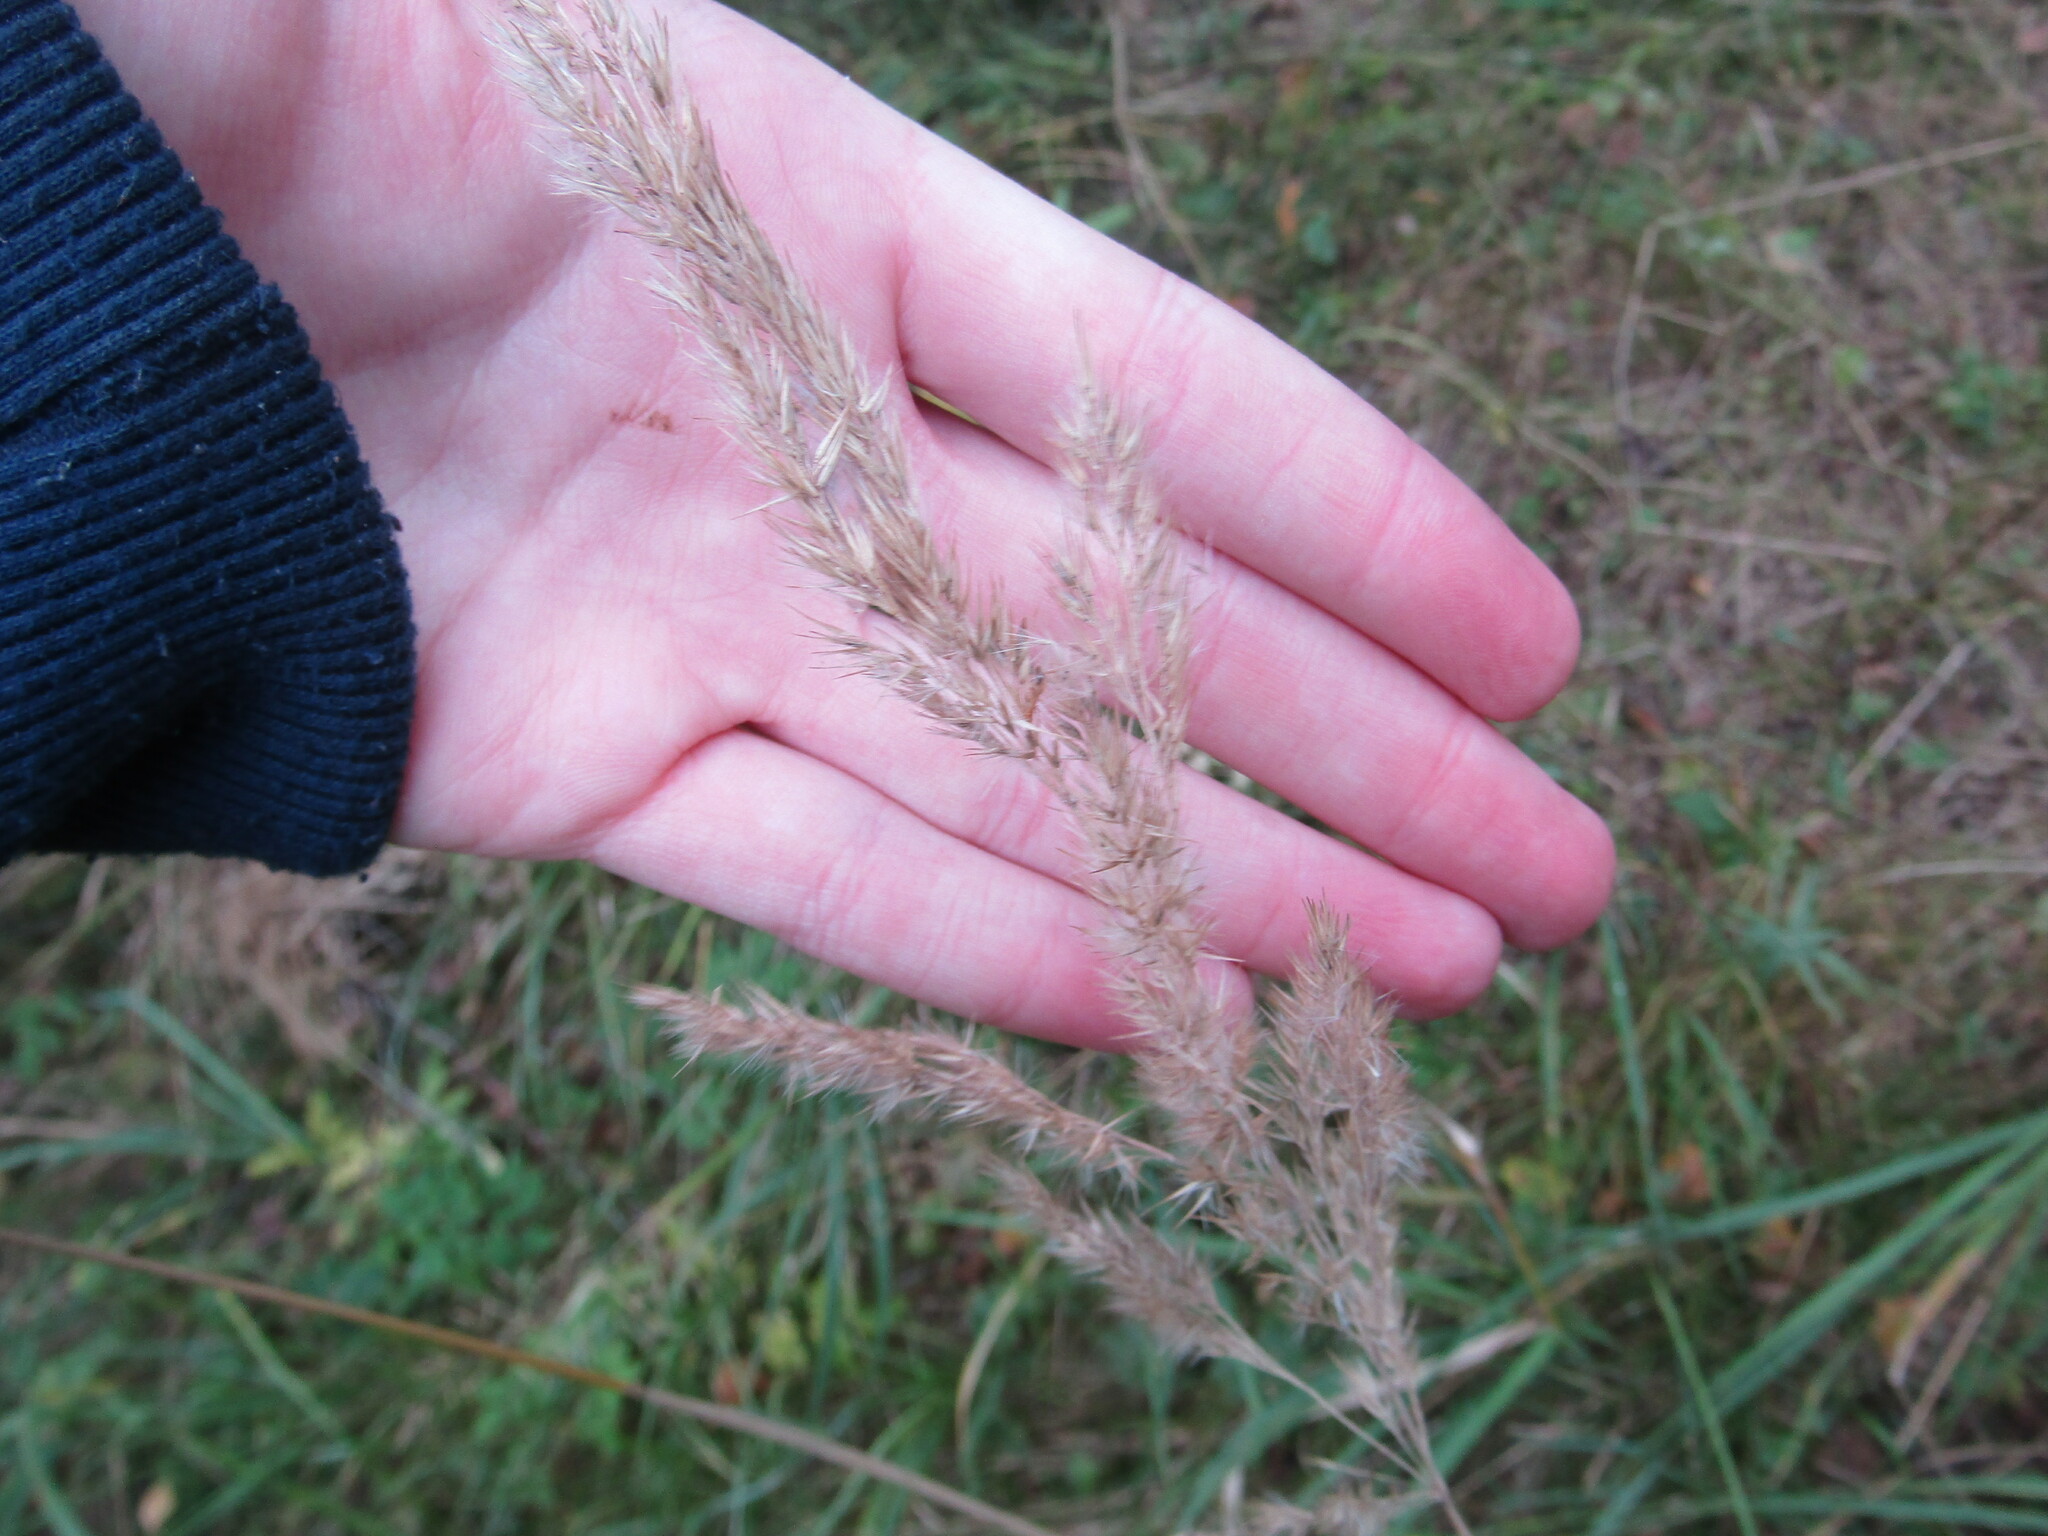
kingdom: Plantae
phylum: Tracheophyta
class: Liliopsida
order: Poales
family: Poaceae
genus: Calamagrostis
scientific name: Calamagrostis epigejos
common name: Wood small-reed
